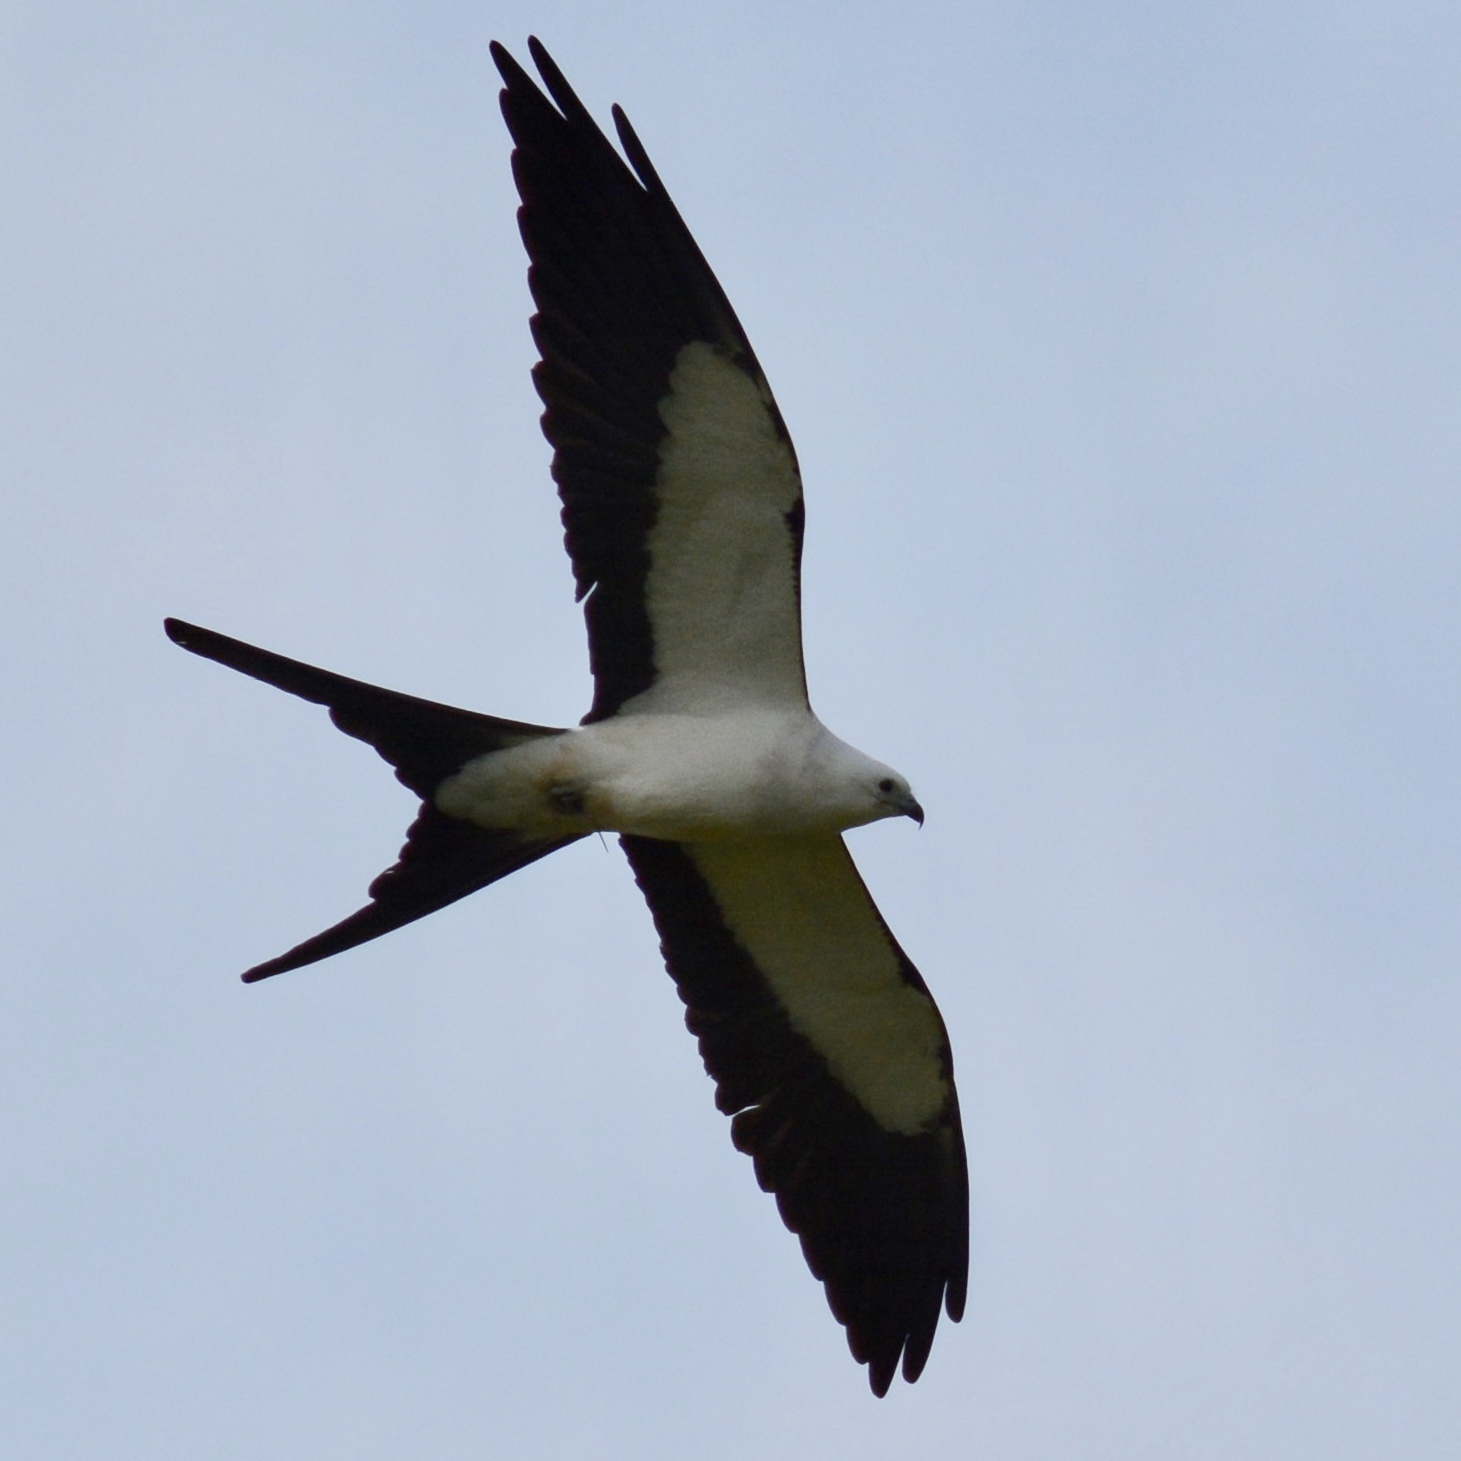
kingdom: Animalia
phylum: Chordata
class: Aves
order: Accipitriformes
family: Accipitridae
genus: Elanoides
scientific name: Elanoides forficatus
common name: Swallow-tailed kite
